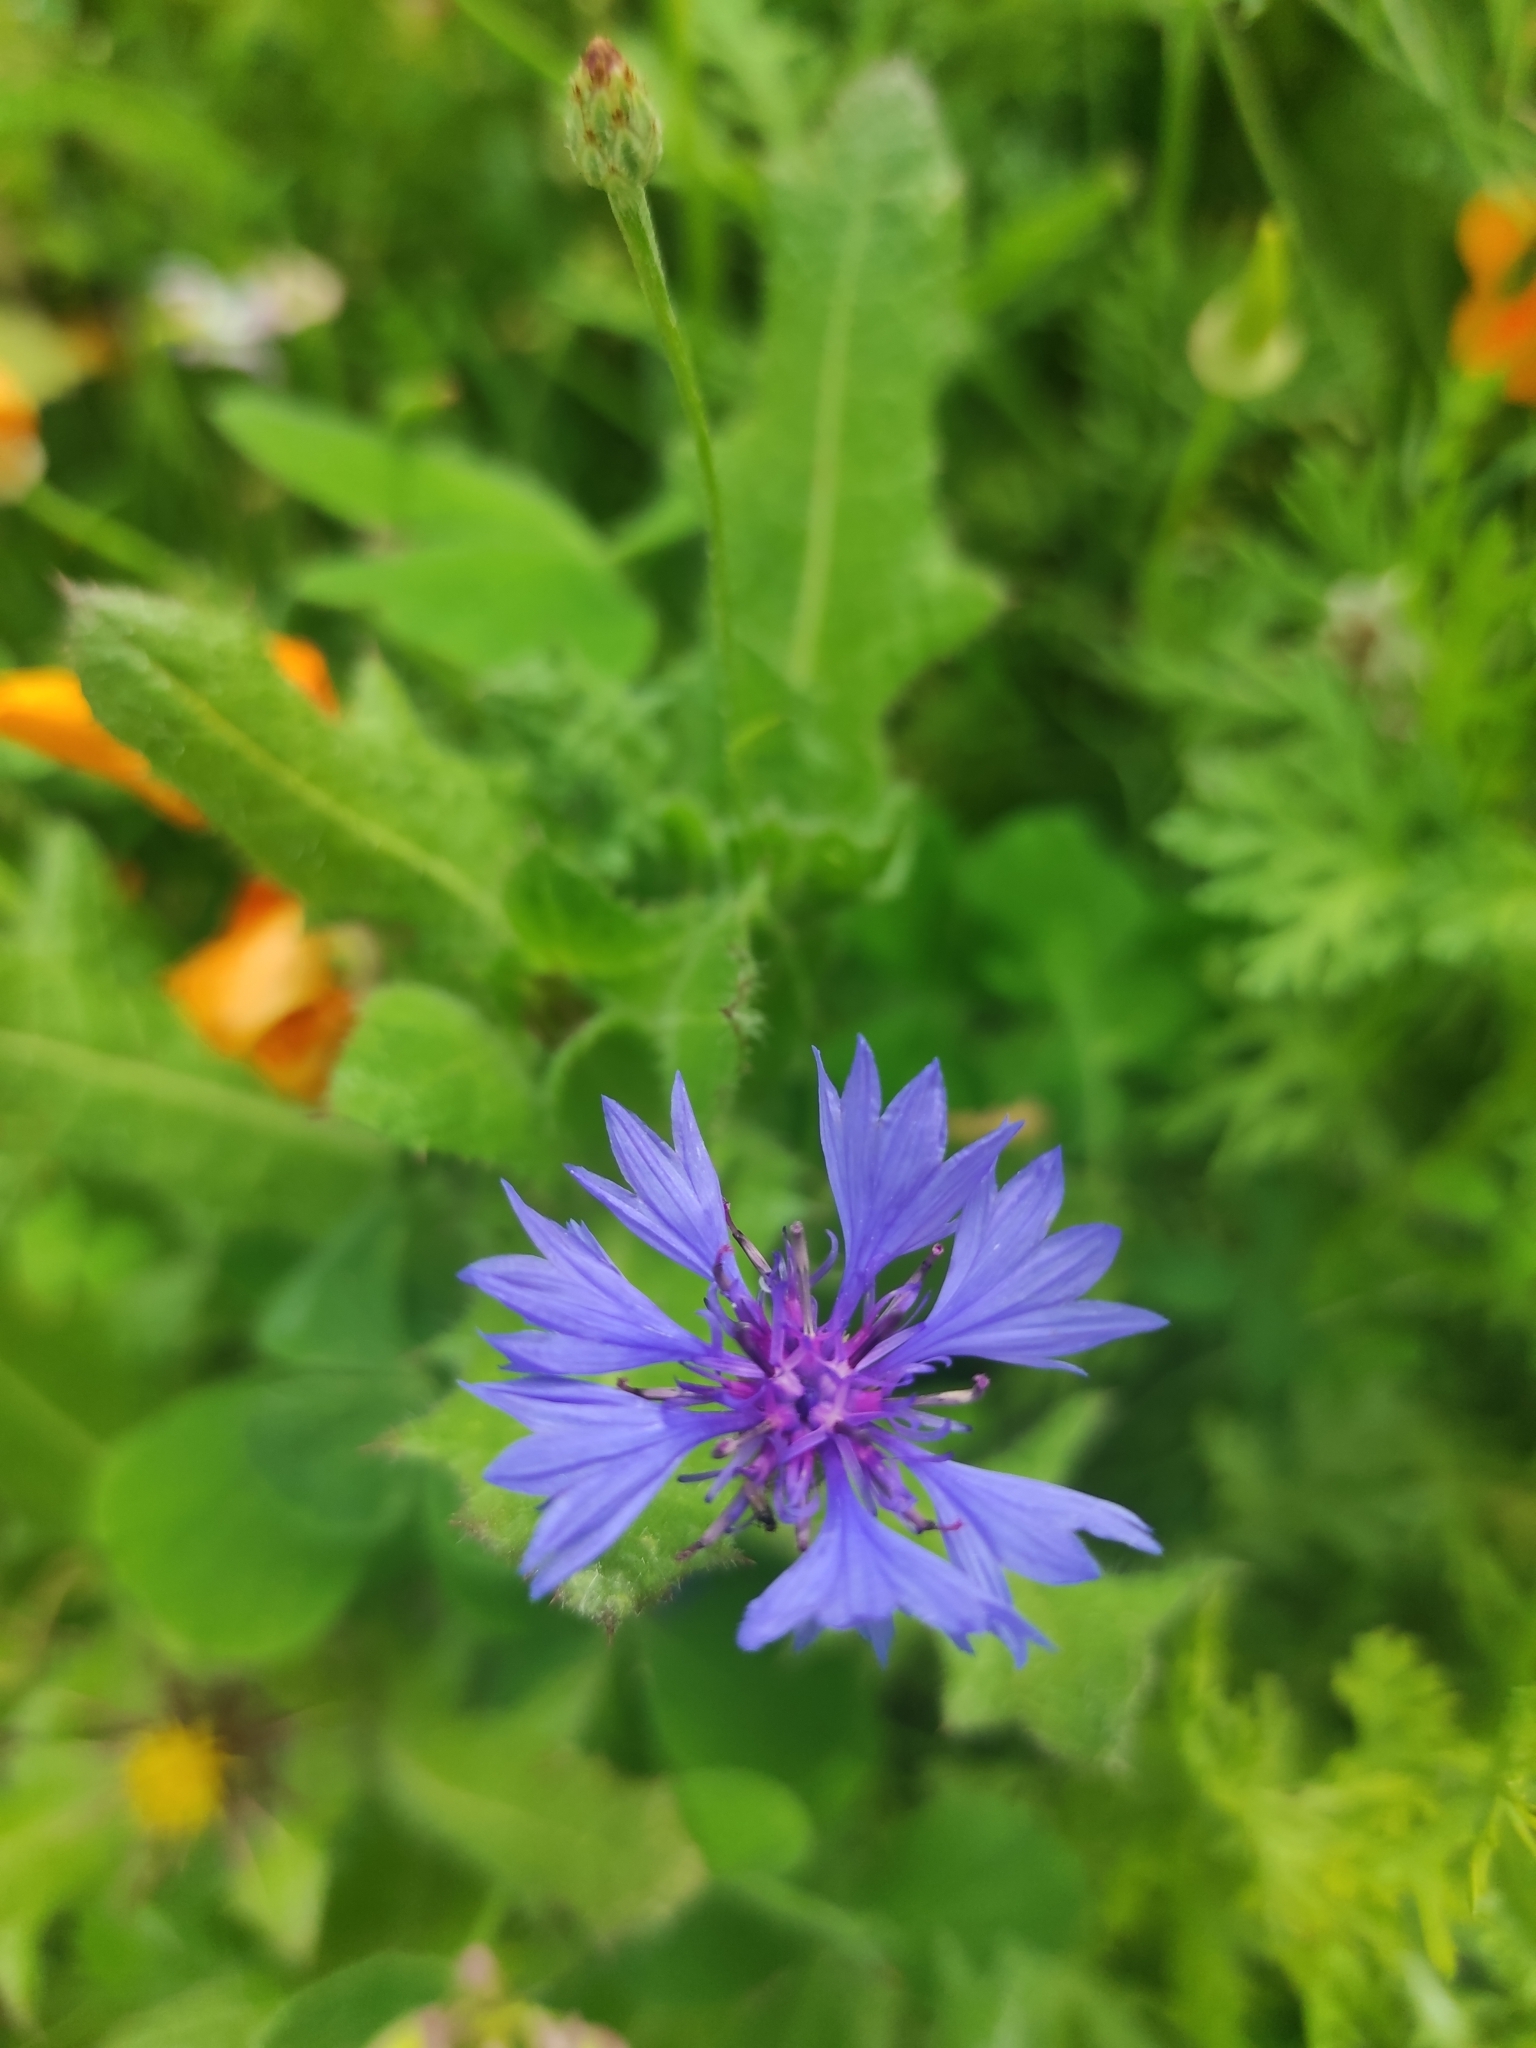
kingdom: Plantae
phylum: Tracheophyta
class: Magnoliopsida
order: Asterales
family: Asteraceae
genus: Centaurea
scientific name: Centaurea cyanus
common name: Cornflower
